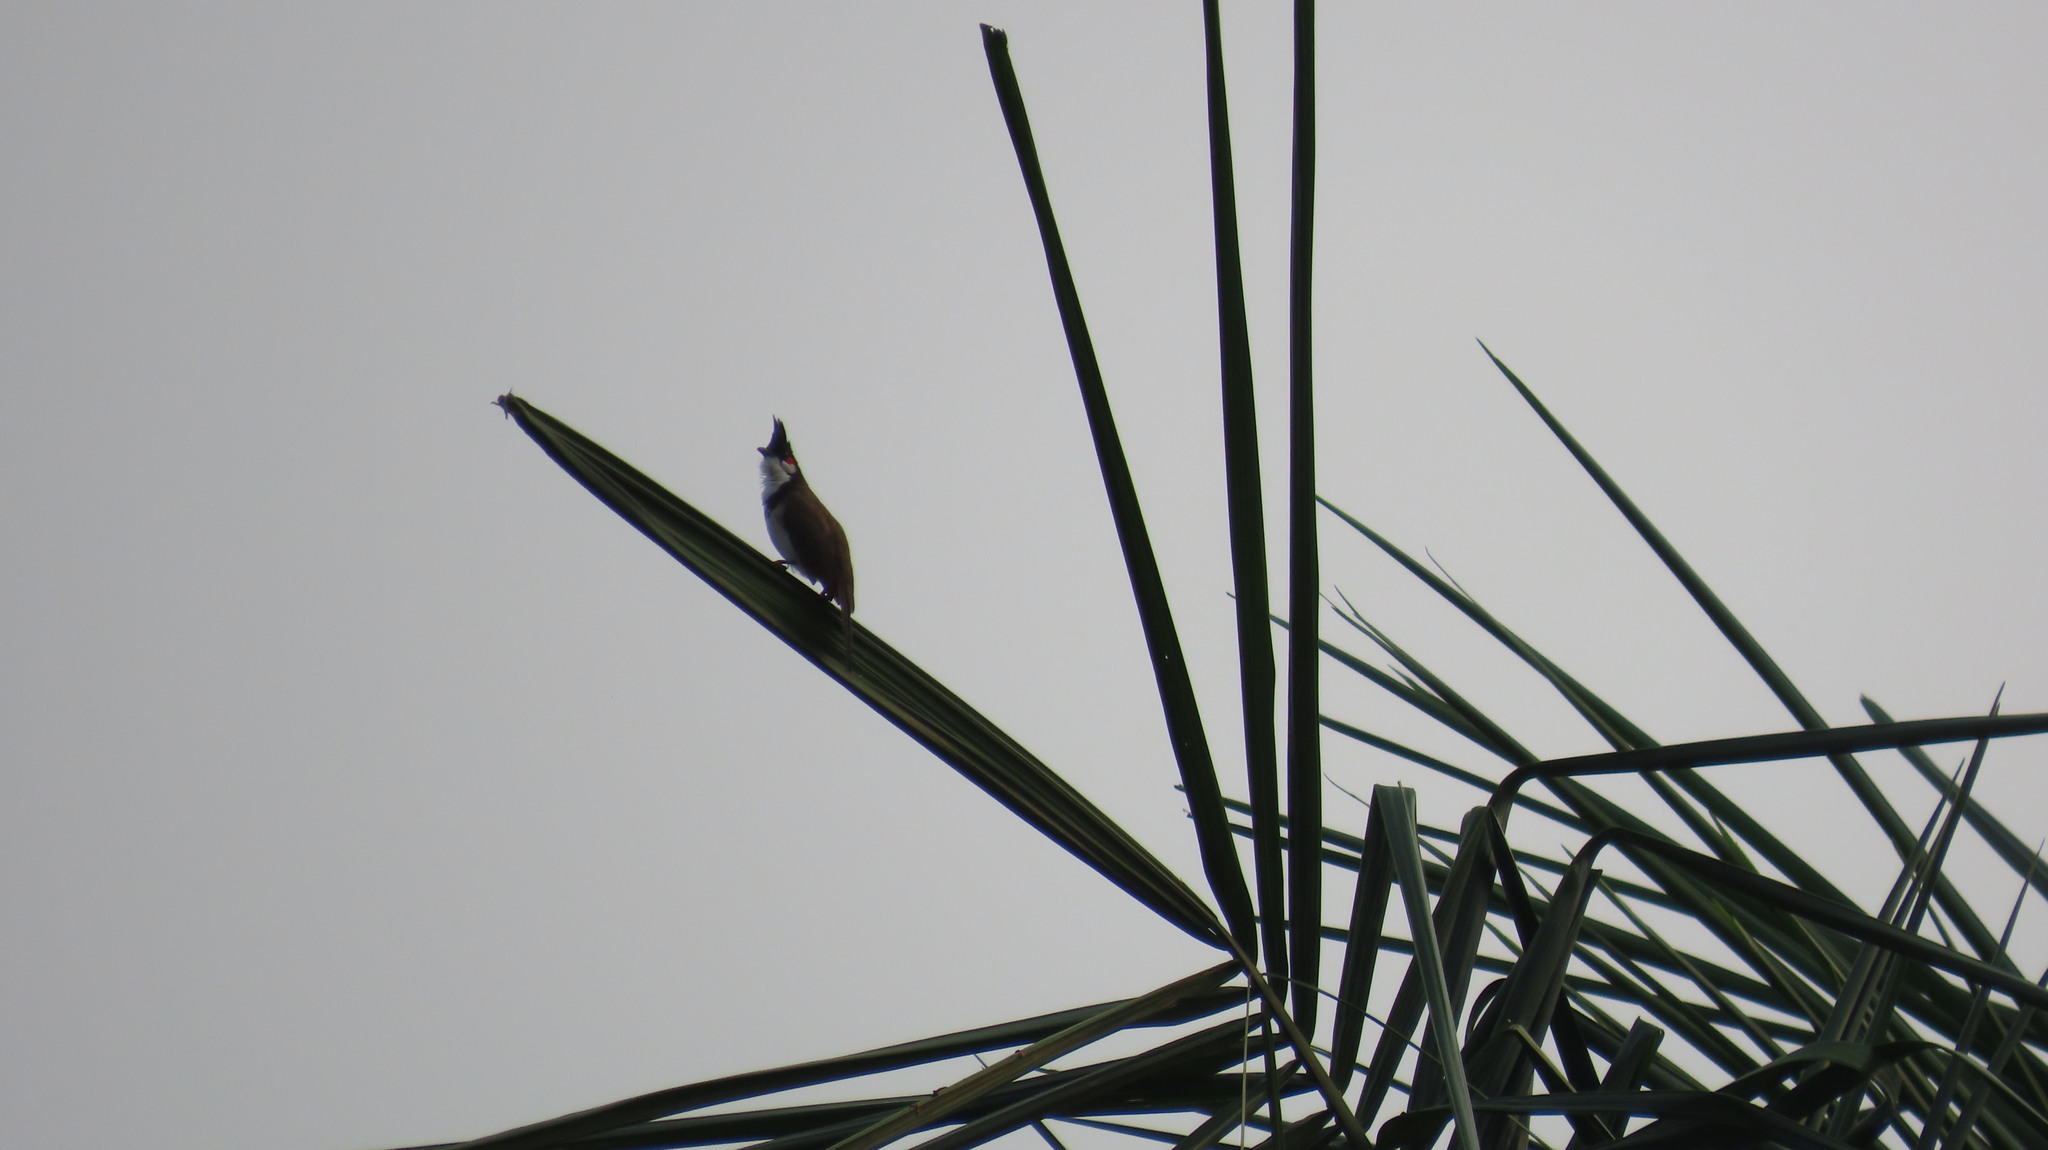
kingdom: Animalia
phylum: Chordata
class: Aves
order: Passeriformes
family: Pycnonotidae
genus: Pycnonotus
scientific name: Pycnonotus jocosus
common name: Red-whiskered bulbul
